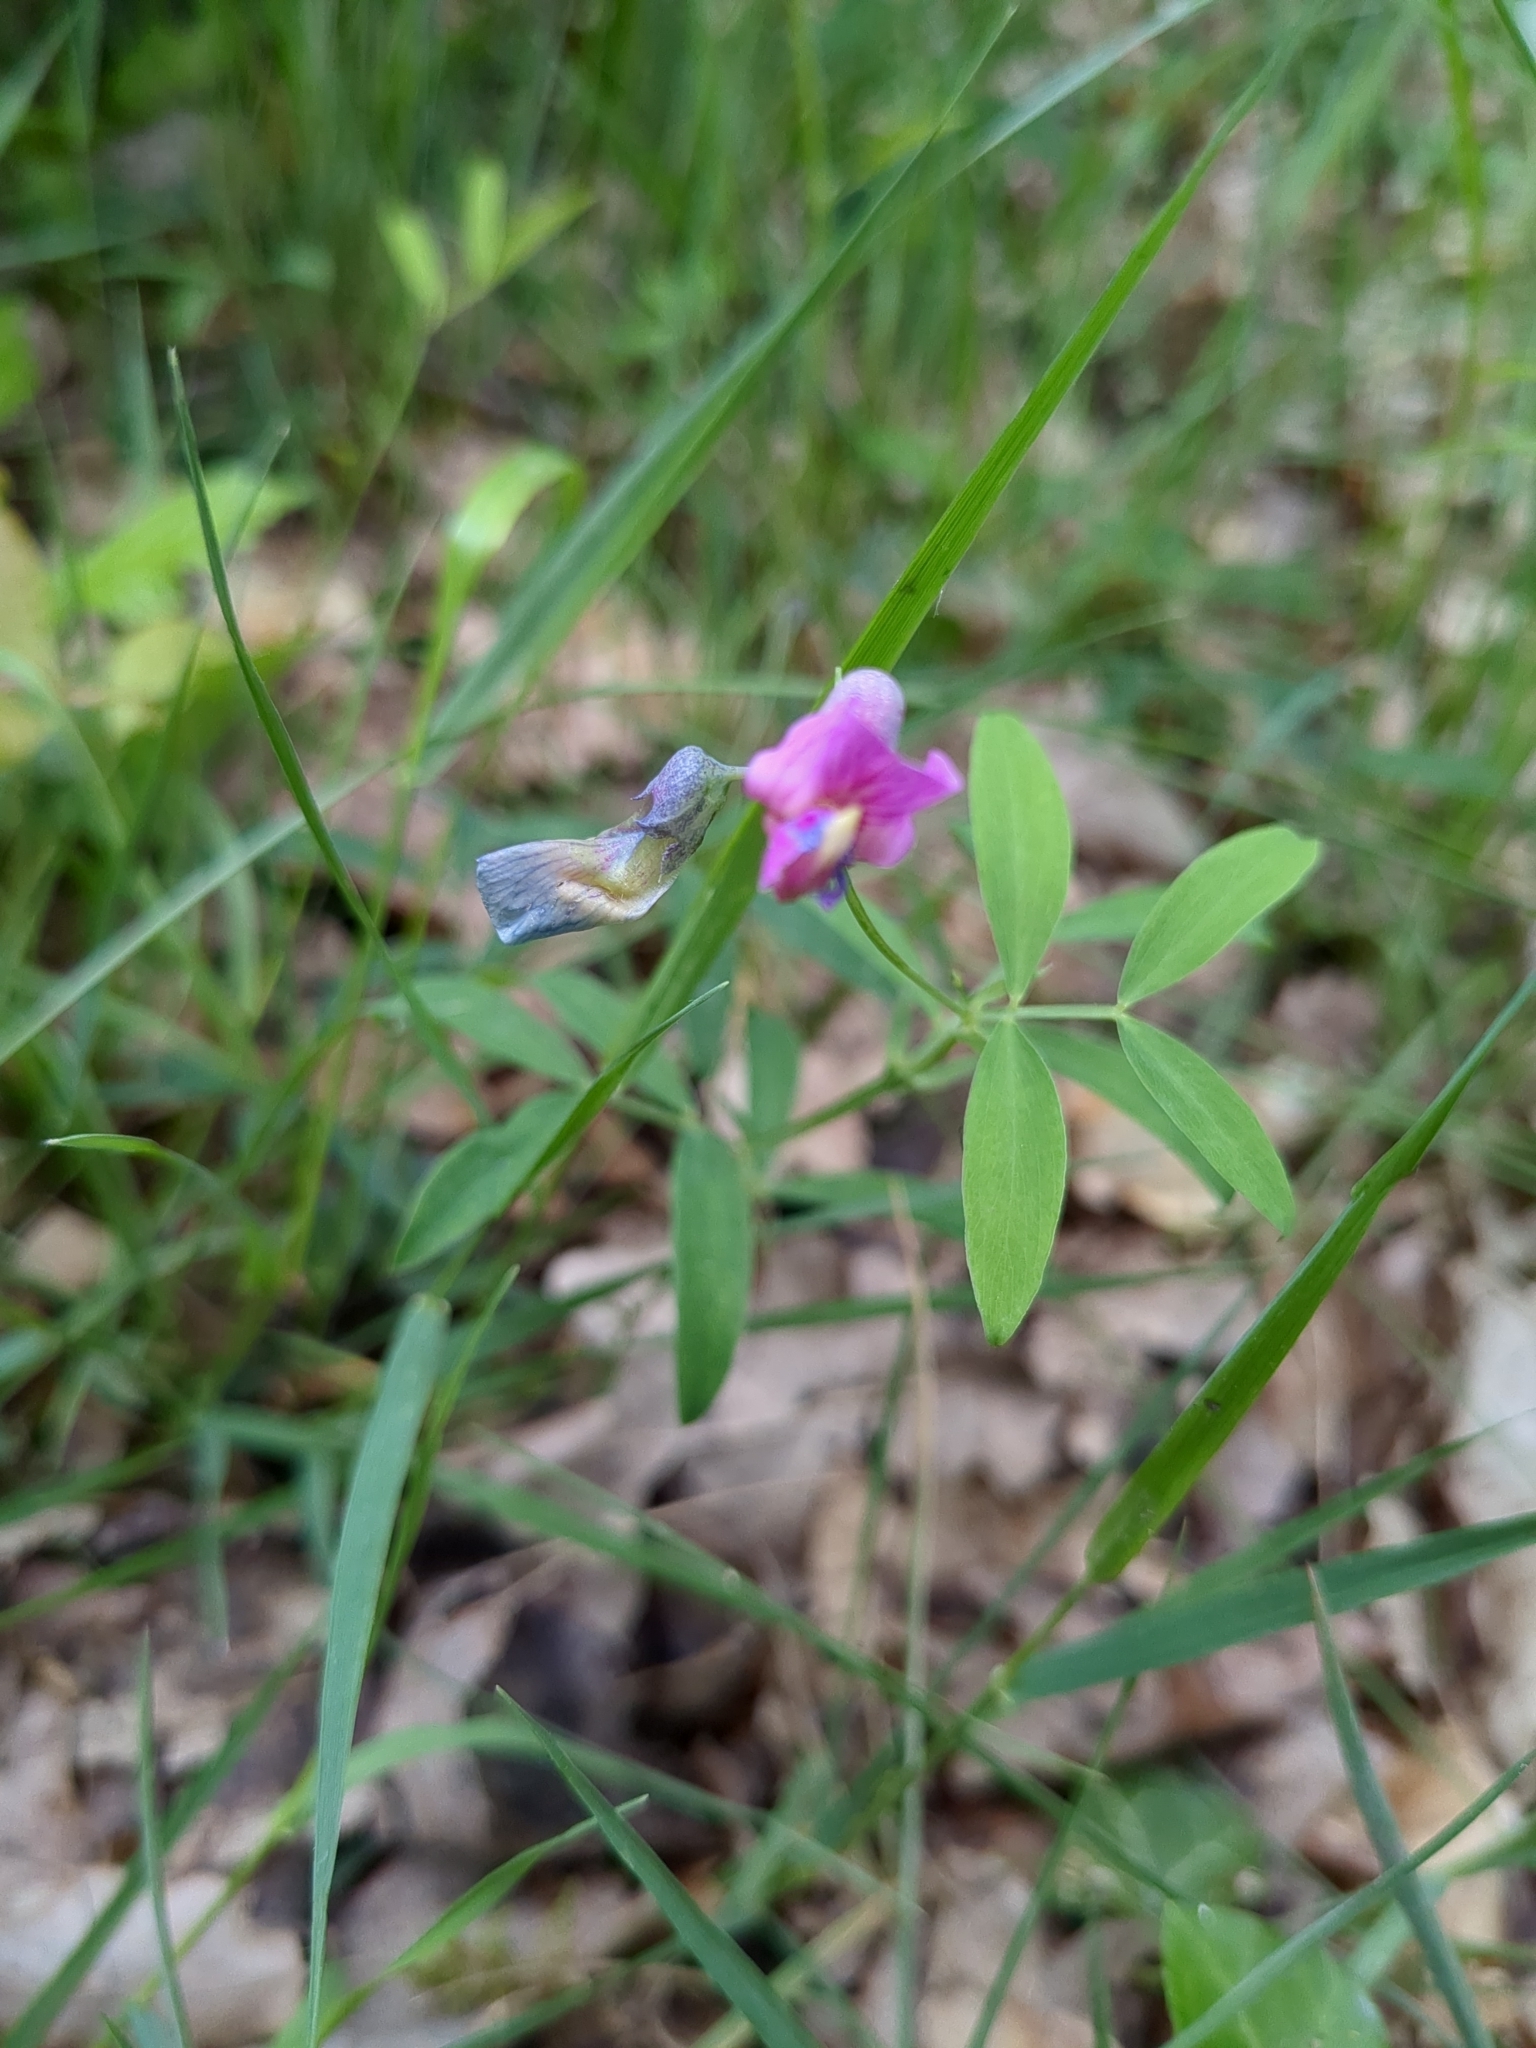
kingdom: Plantae
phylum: Tracheophyta
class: Magnoliopsida
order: Fabales
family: Fabaceae
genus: Lathyrus
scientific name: Lathyrus linifolius
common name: Bitter-vetch
